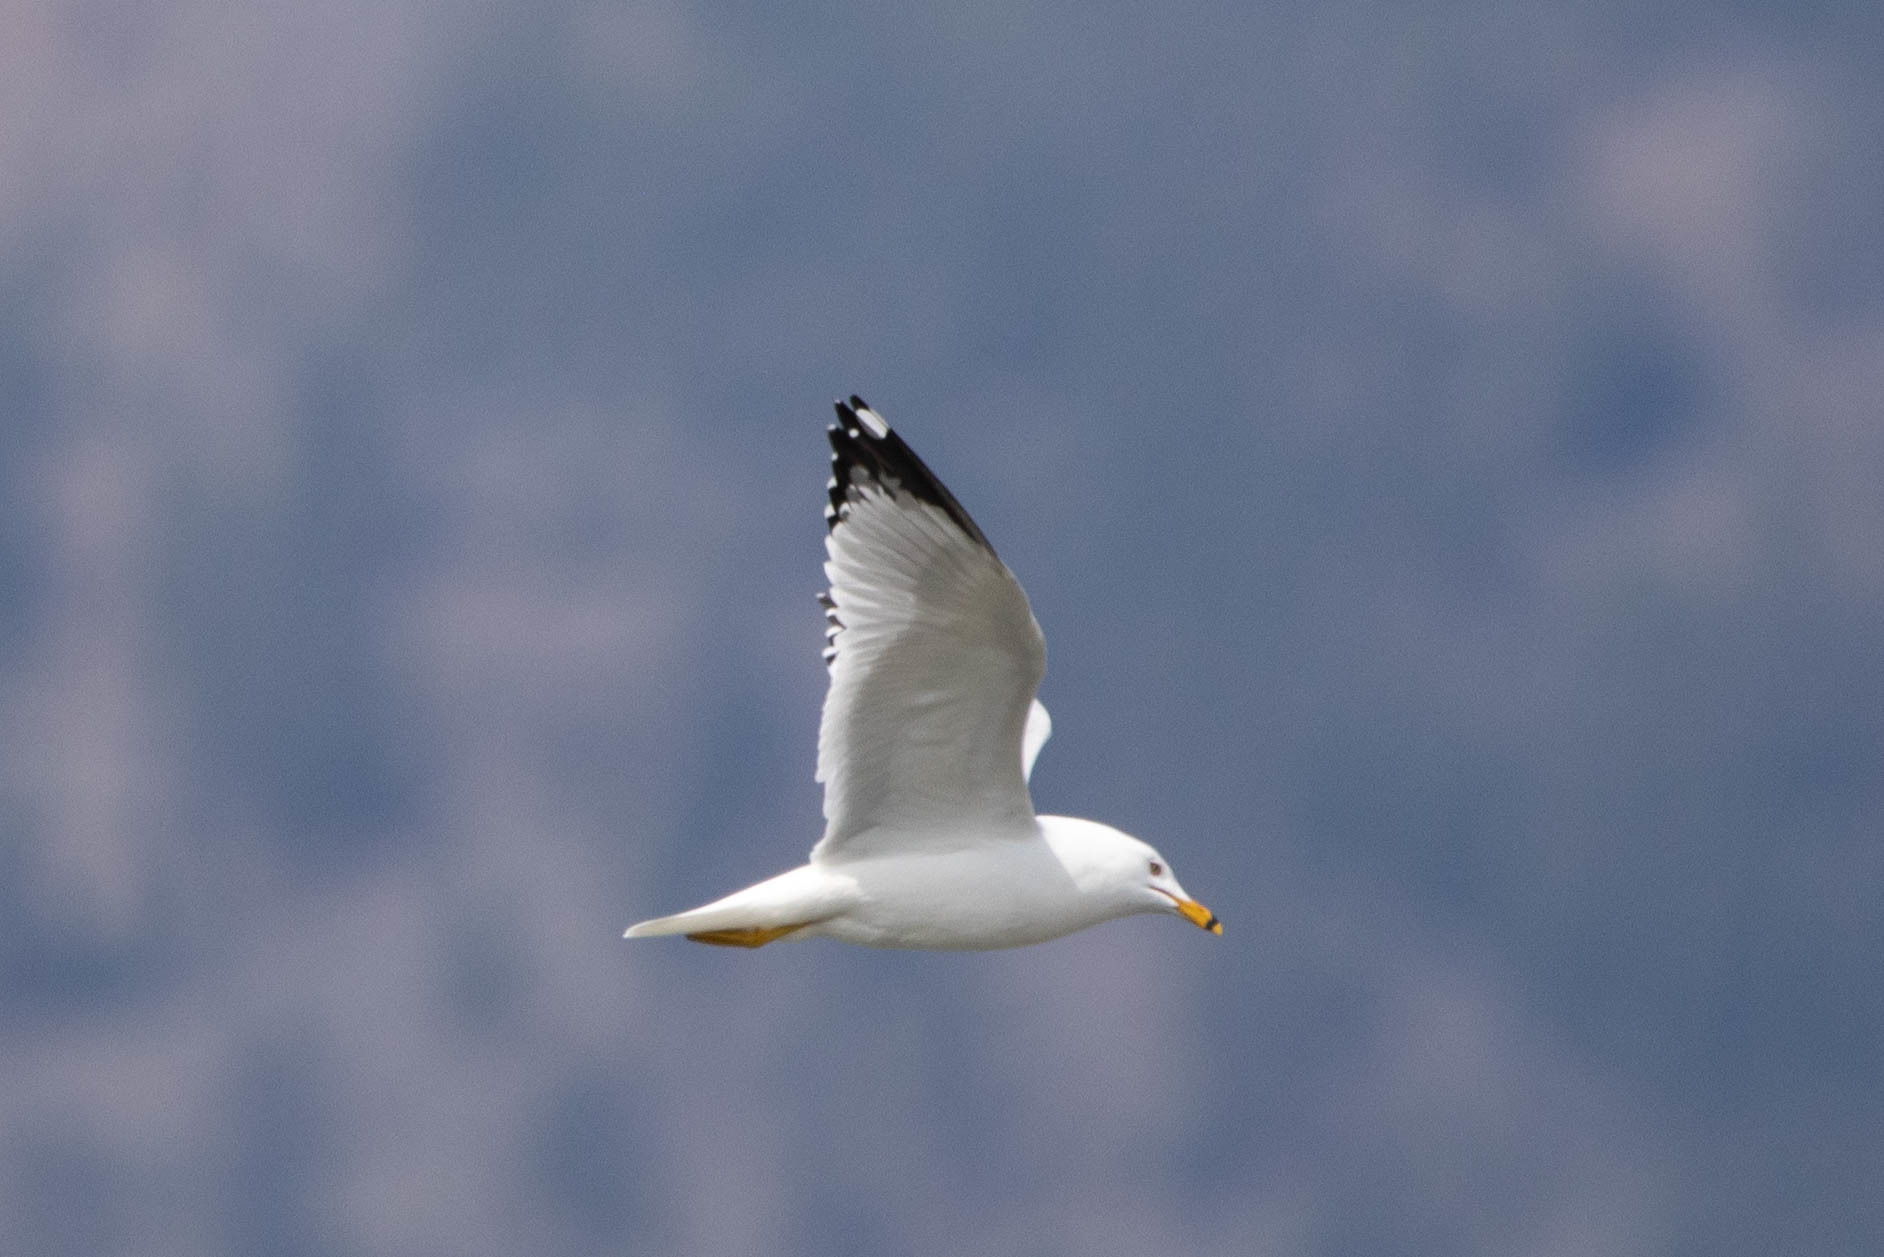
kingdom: Animalia
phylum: Chordata
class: Aves
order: Charadriiformes
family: Laridae
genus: Larus
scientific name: Larus delawarensis
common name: Ring-billed gull
